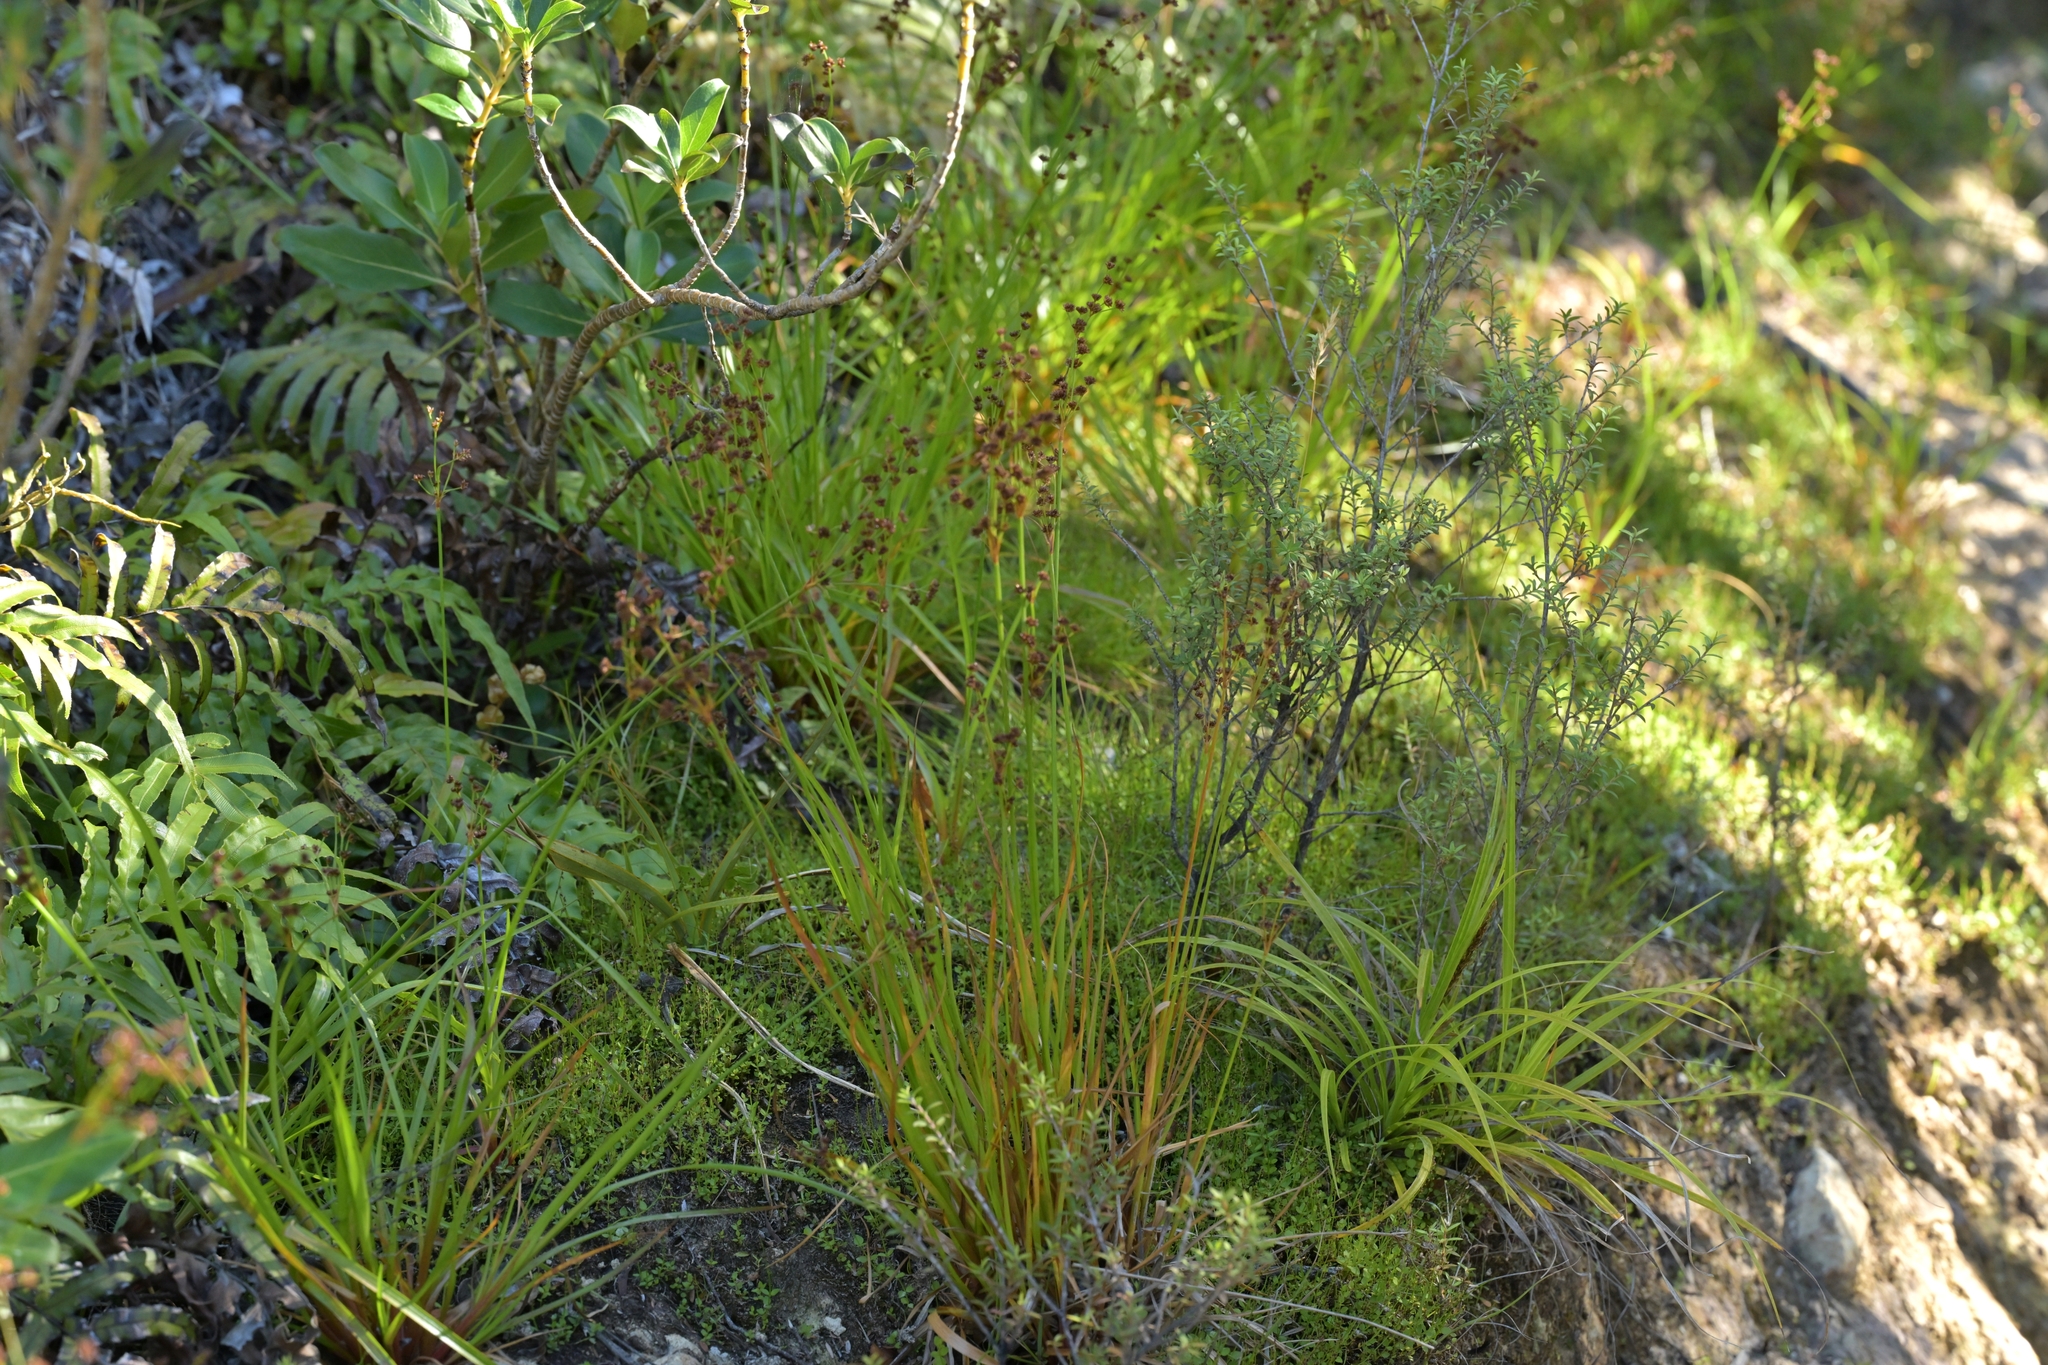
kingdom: Plantae
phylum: Tracheophyta
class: Liliopsida
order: Poales
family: Juncaceae
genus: Juncus
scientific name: Juncus planifolius
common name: Broadleaf rush
